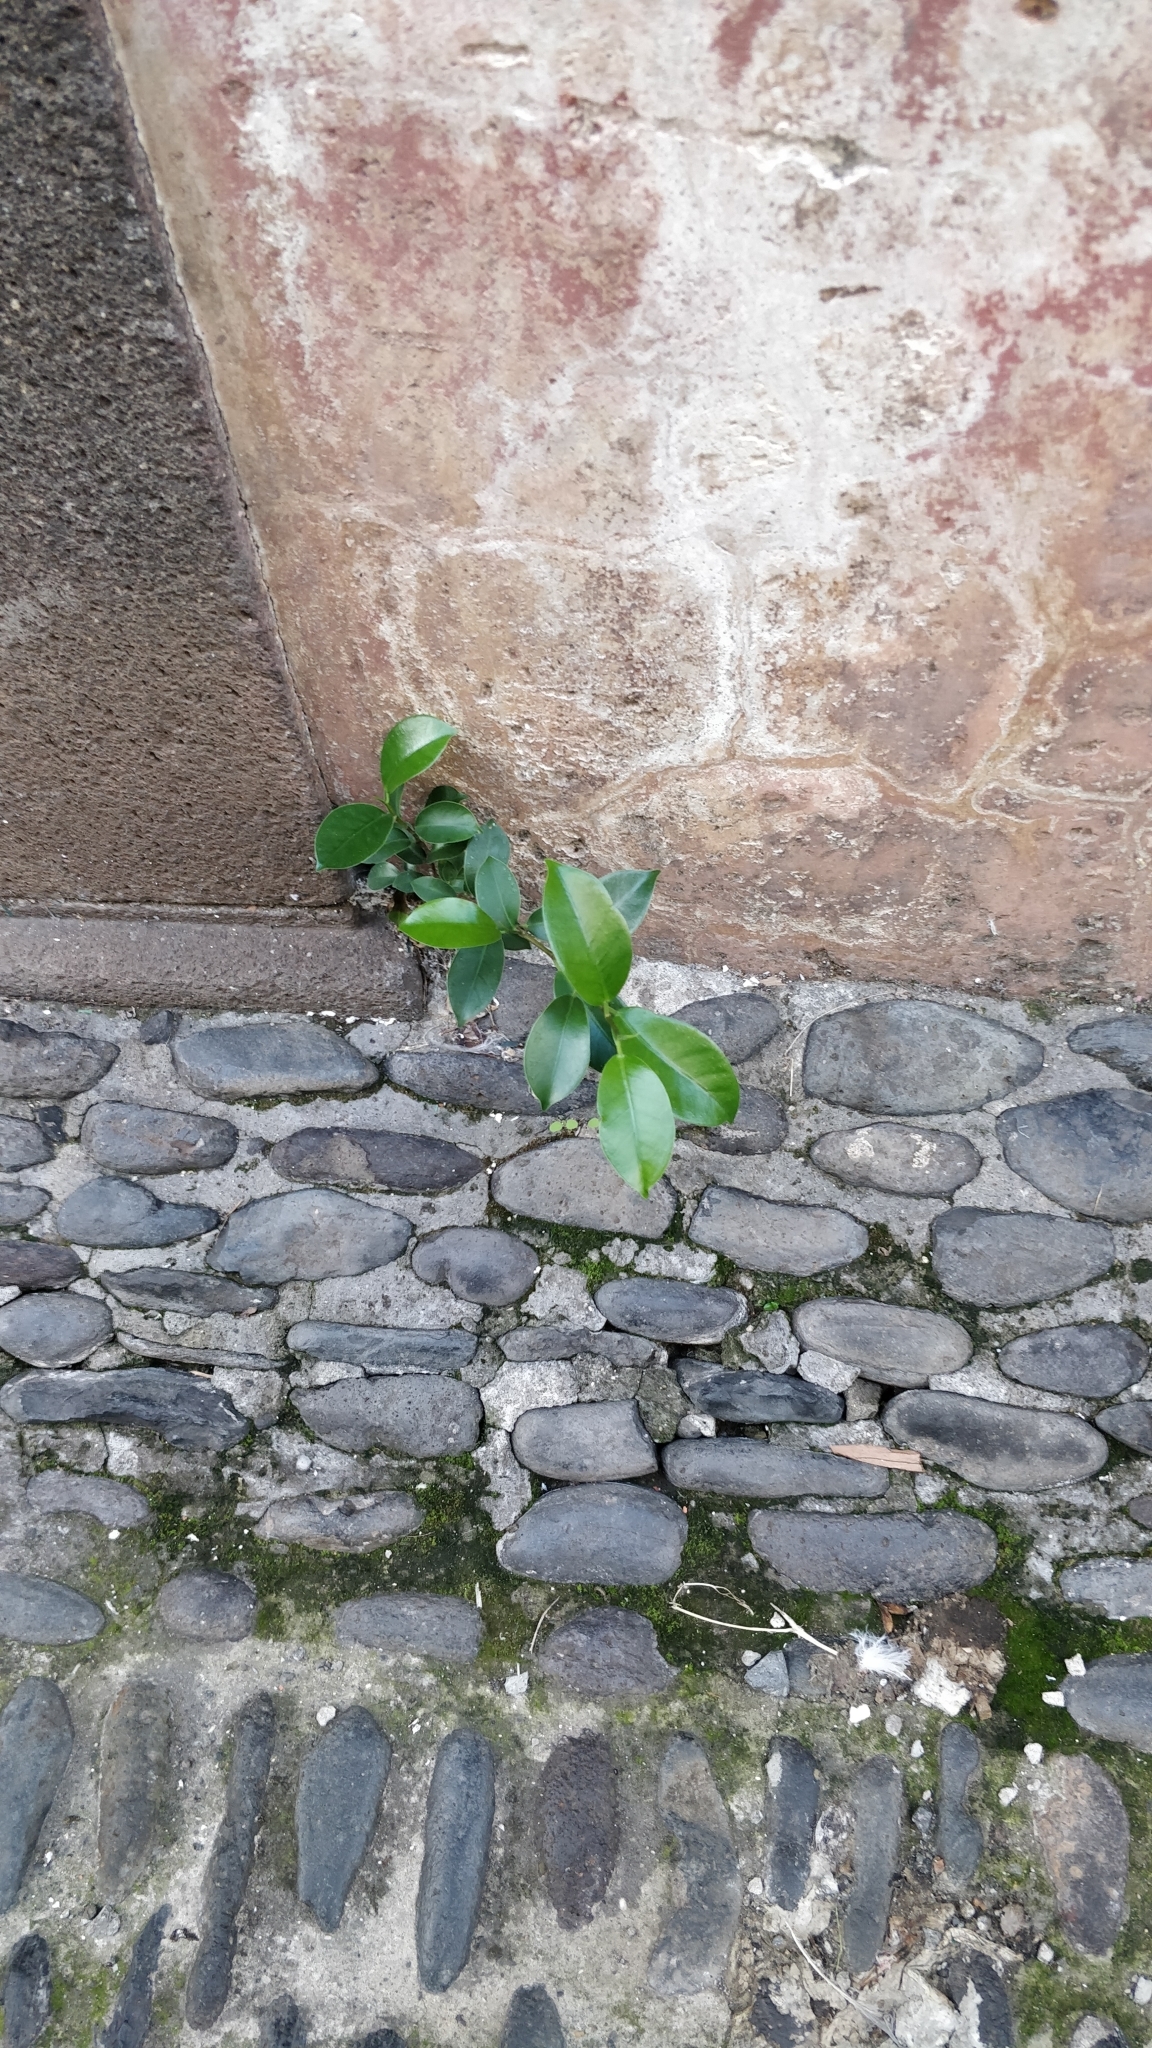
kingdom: Plantae
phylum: Tracheophyta
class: Magnoliopsida
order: Rosales
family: Moraceae
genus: Ficus
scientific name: Ficus benjamina
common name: Weeping fig
